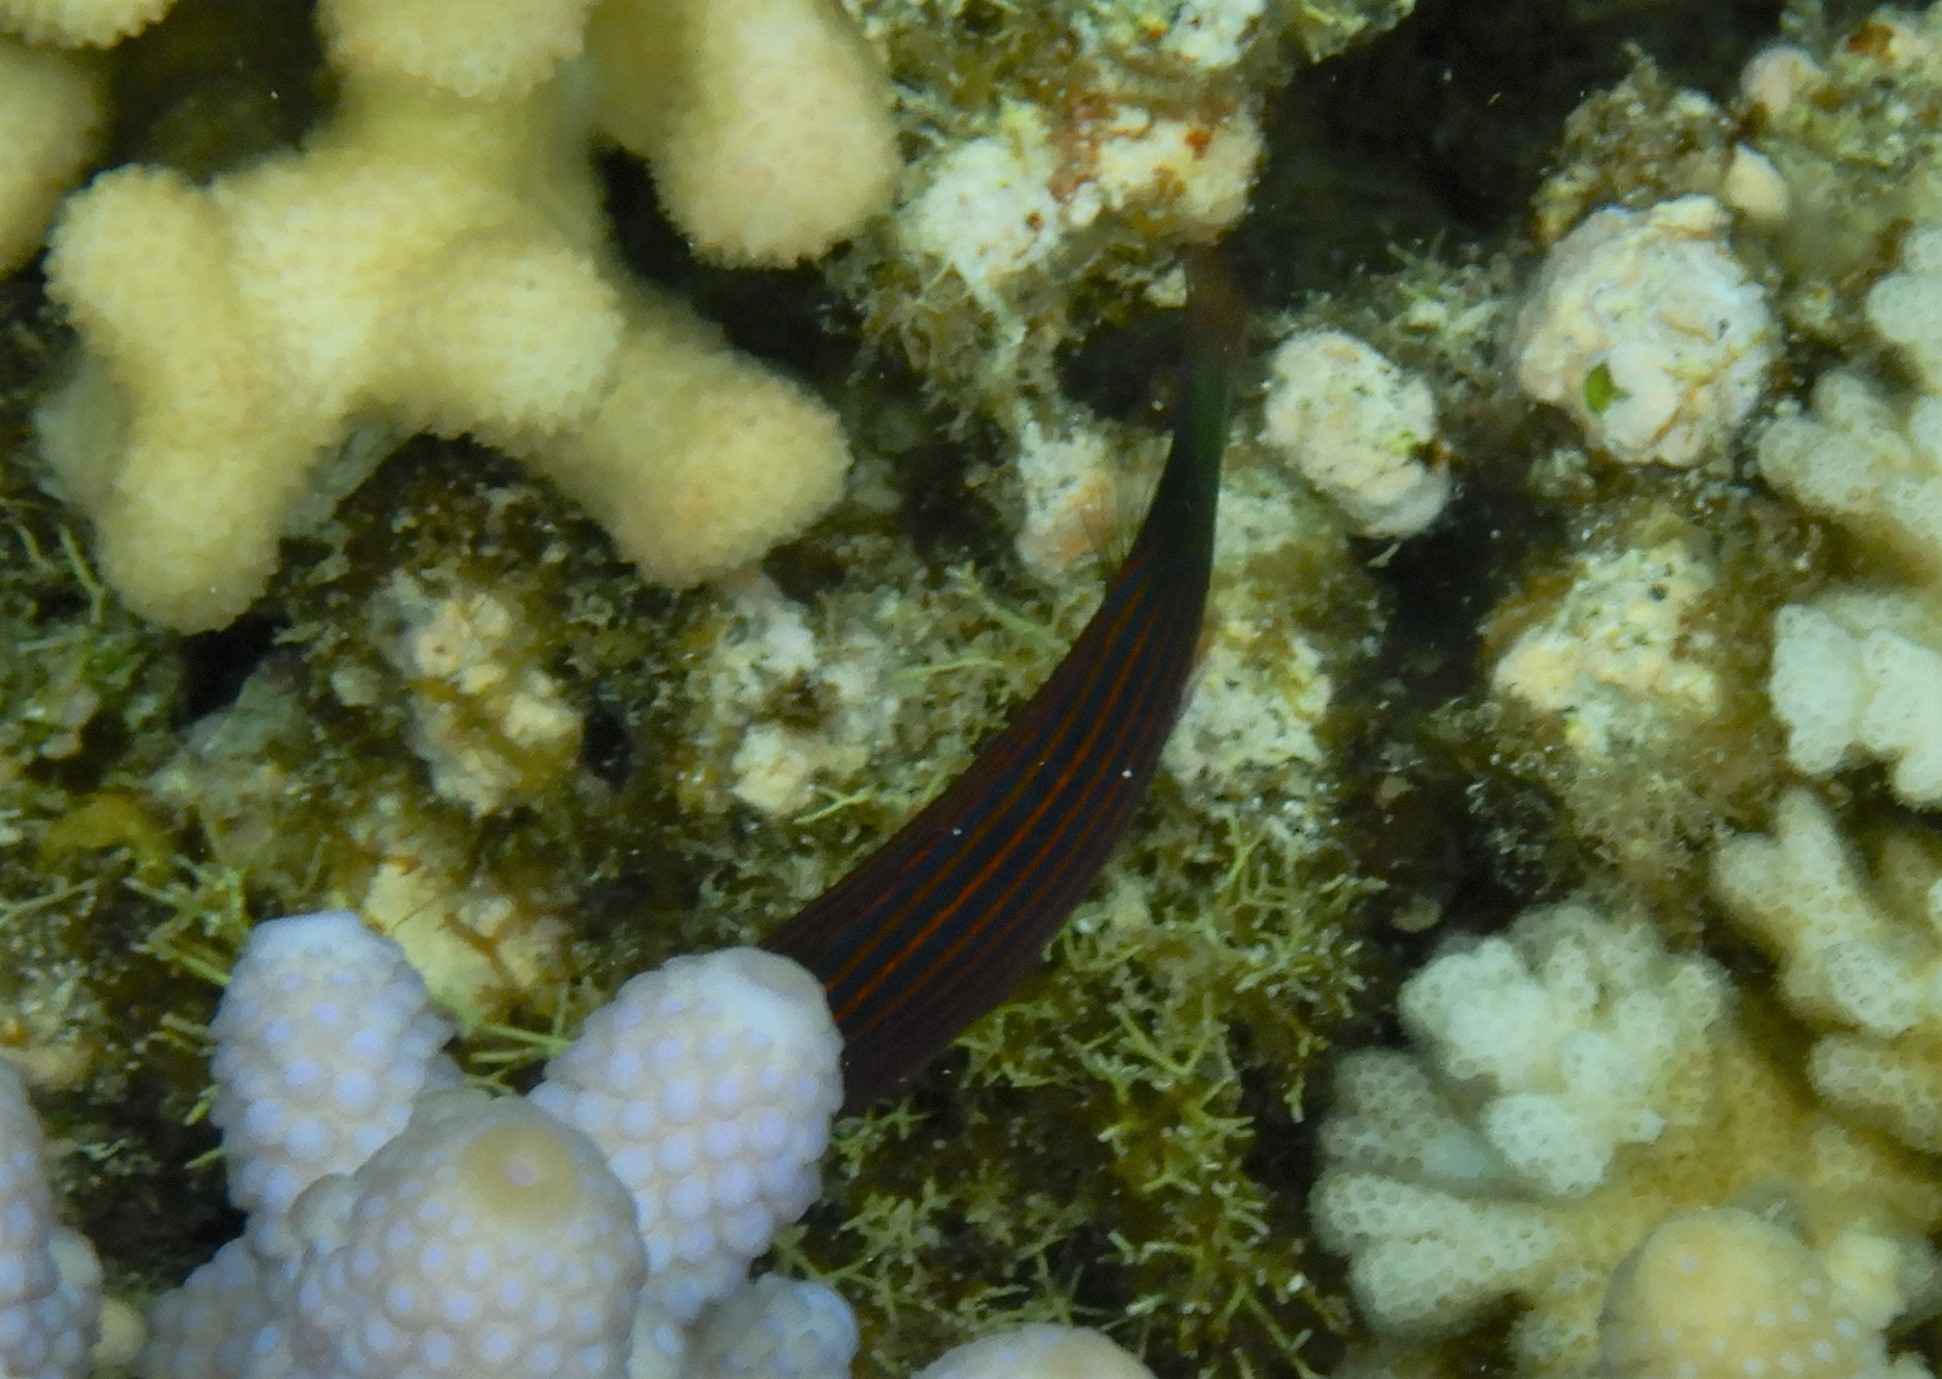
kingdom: Animalia
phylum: Chordata
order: Perciformes
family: Labridae
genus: Pseudocheilinus
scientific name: Pseudocheilinus hexataenia
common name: Sixline wrasse
